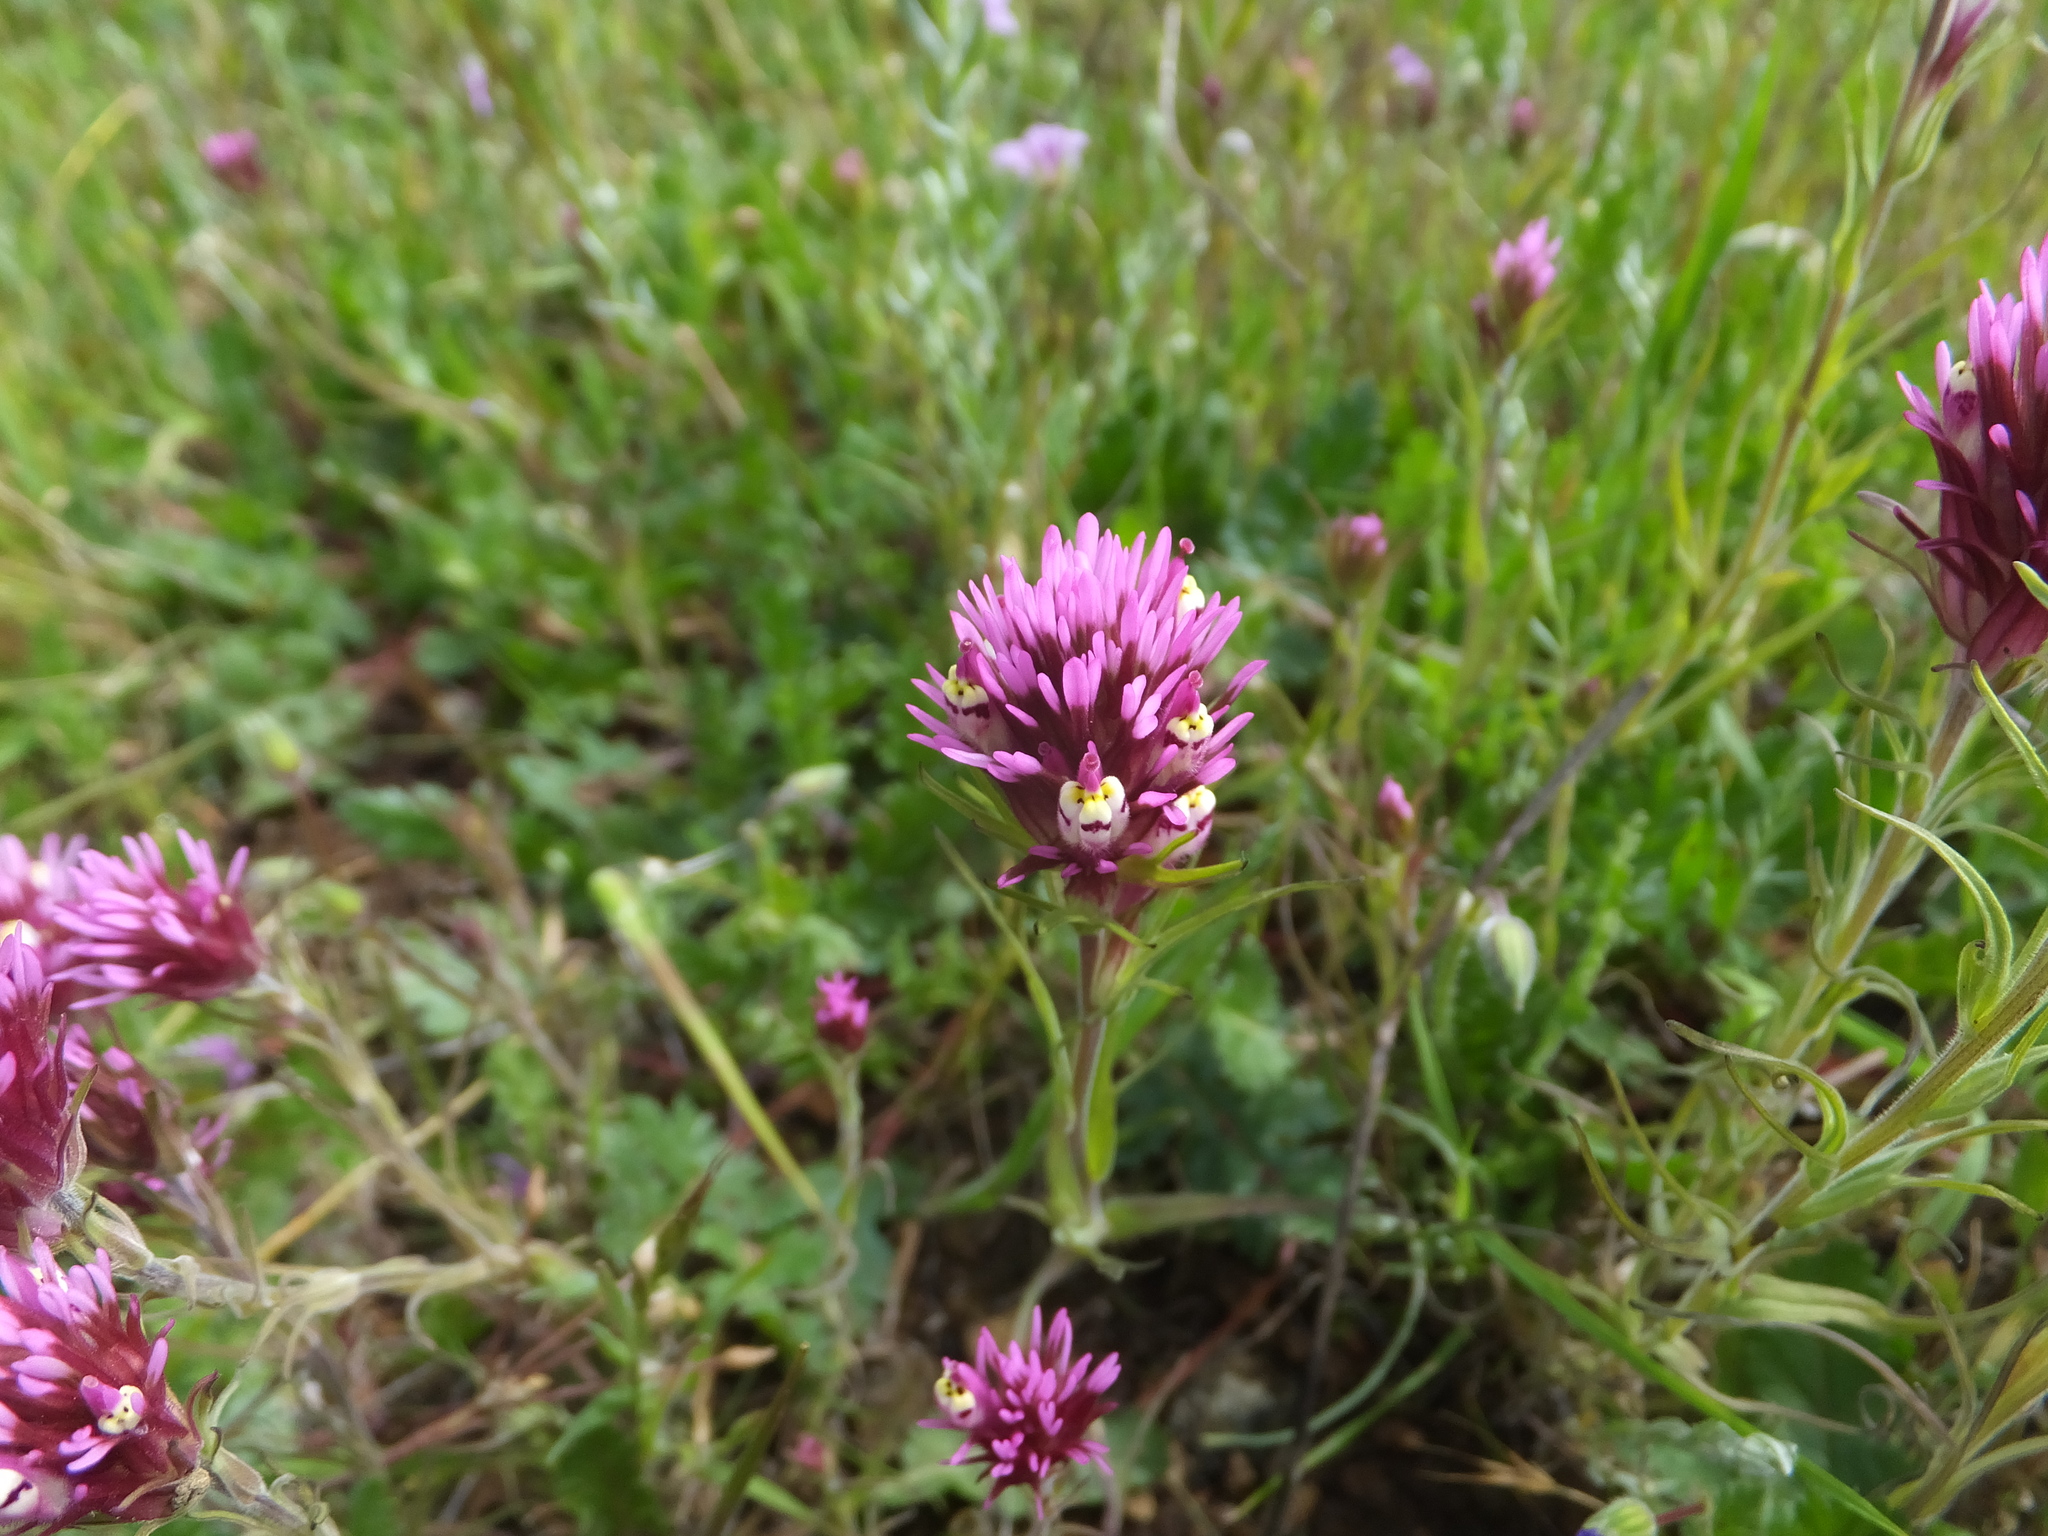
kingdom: Plantae
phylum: Tracheophyta
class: Magnoliopsida
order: Lamiales
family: Orobanchaceae
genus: Castilleja
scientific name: Castilleja densiflora
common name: Dense-flower indian paintbrush
